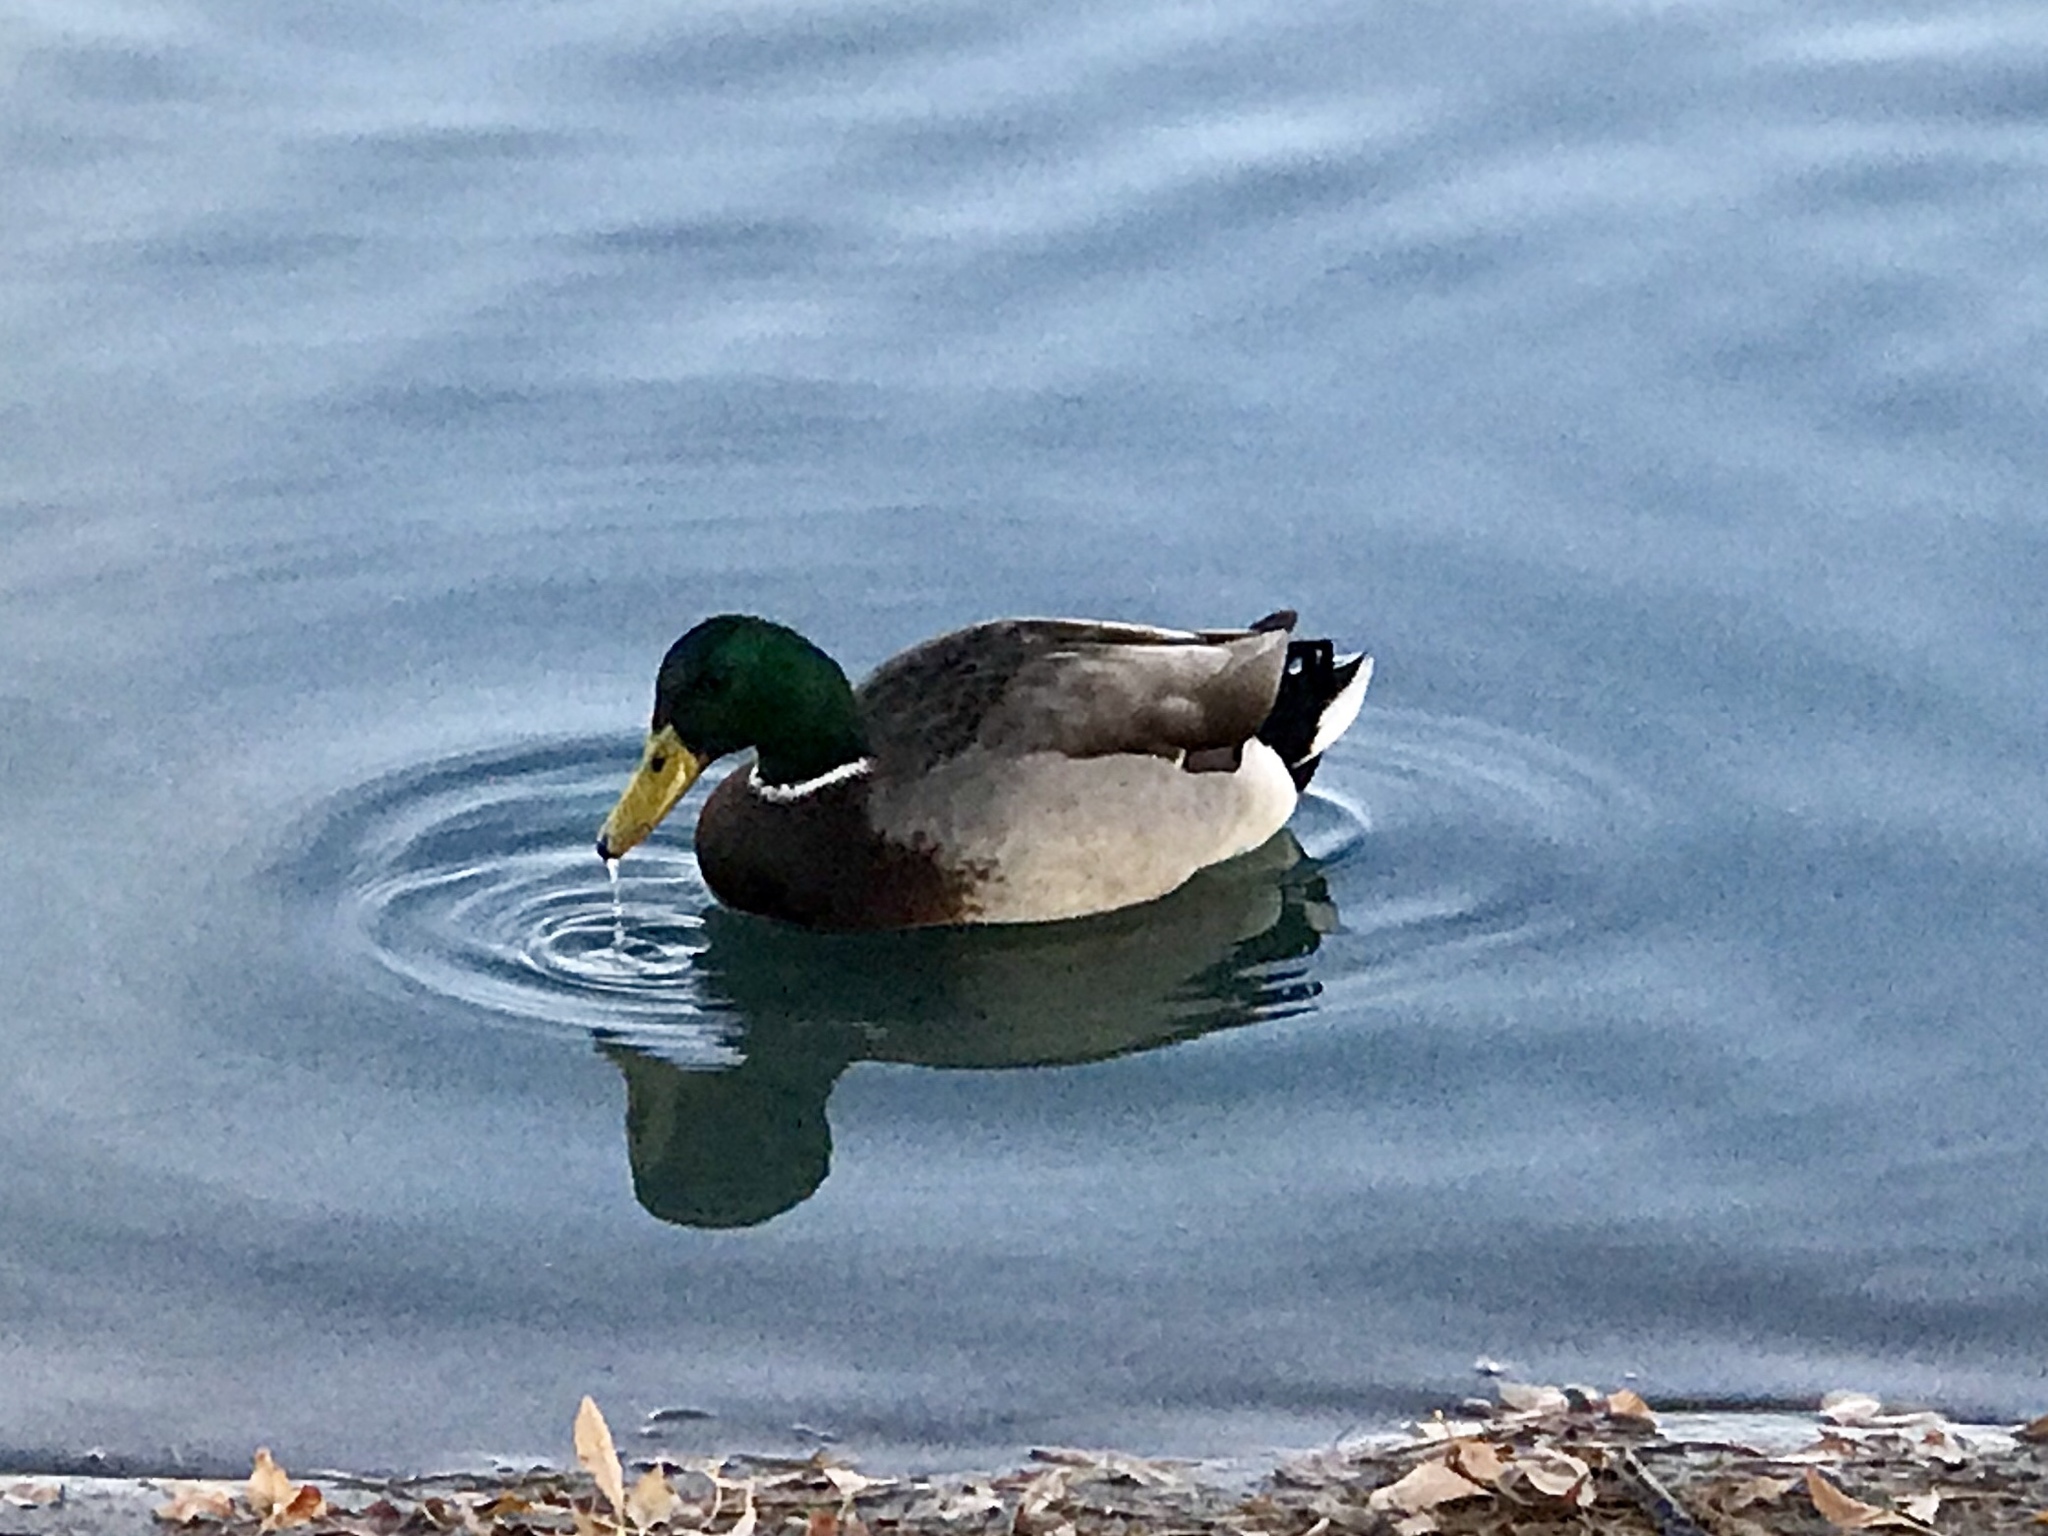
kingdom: Animalia
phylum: Chordata
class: Aves
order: Anseriformes
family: Anatidae
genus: Anas
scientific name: Anas platyrhynchos
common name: Mallard
